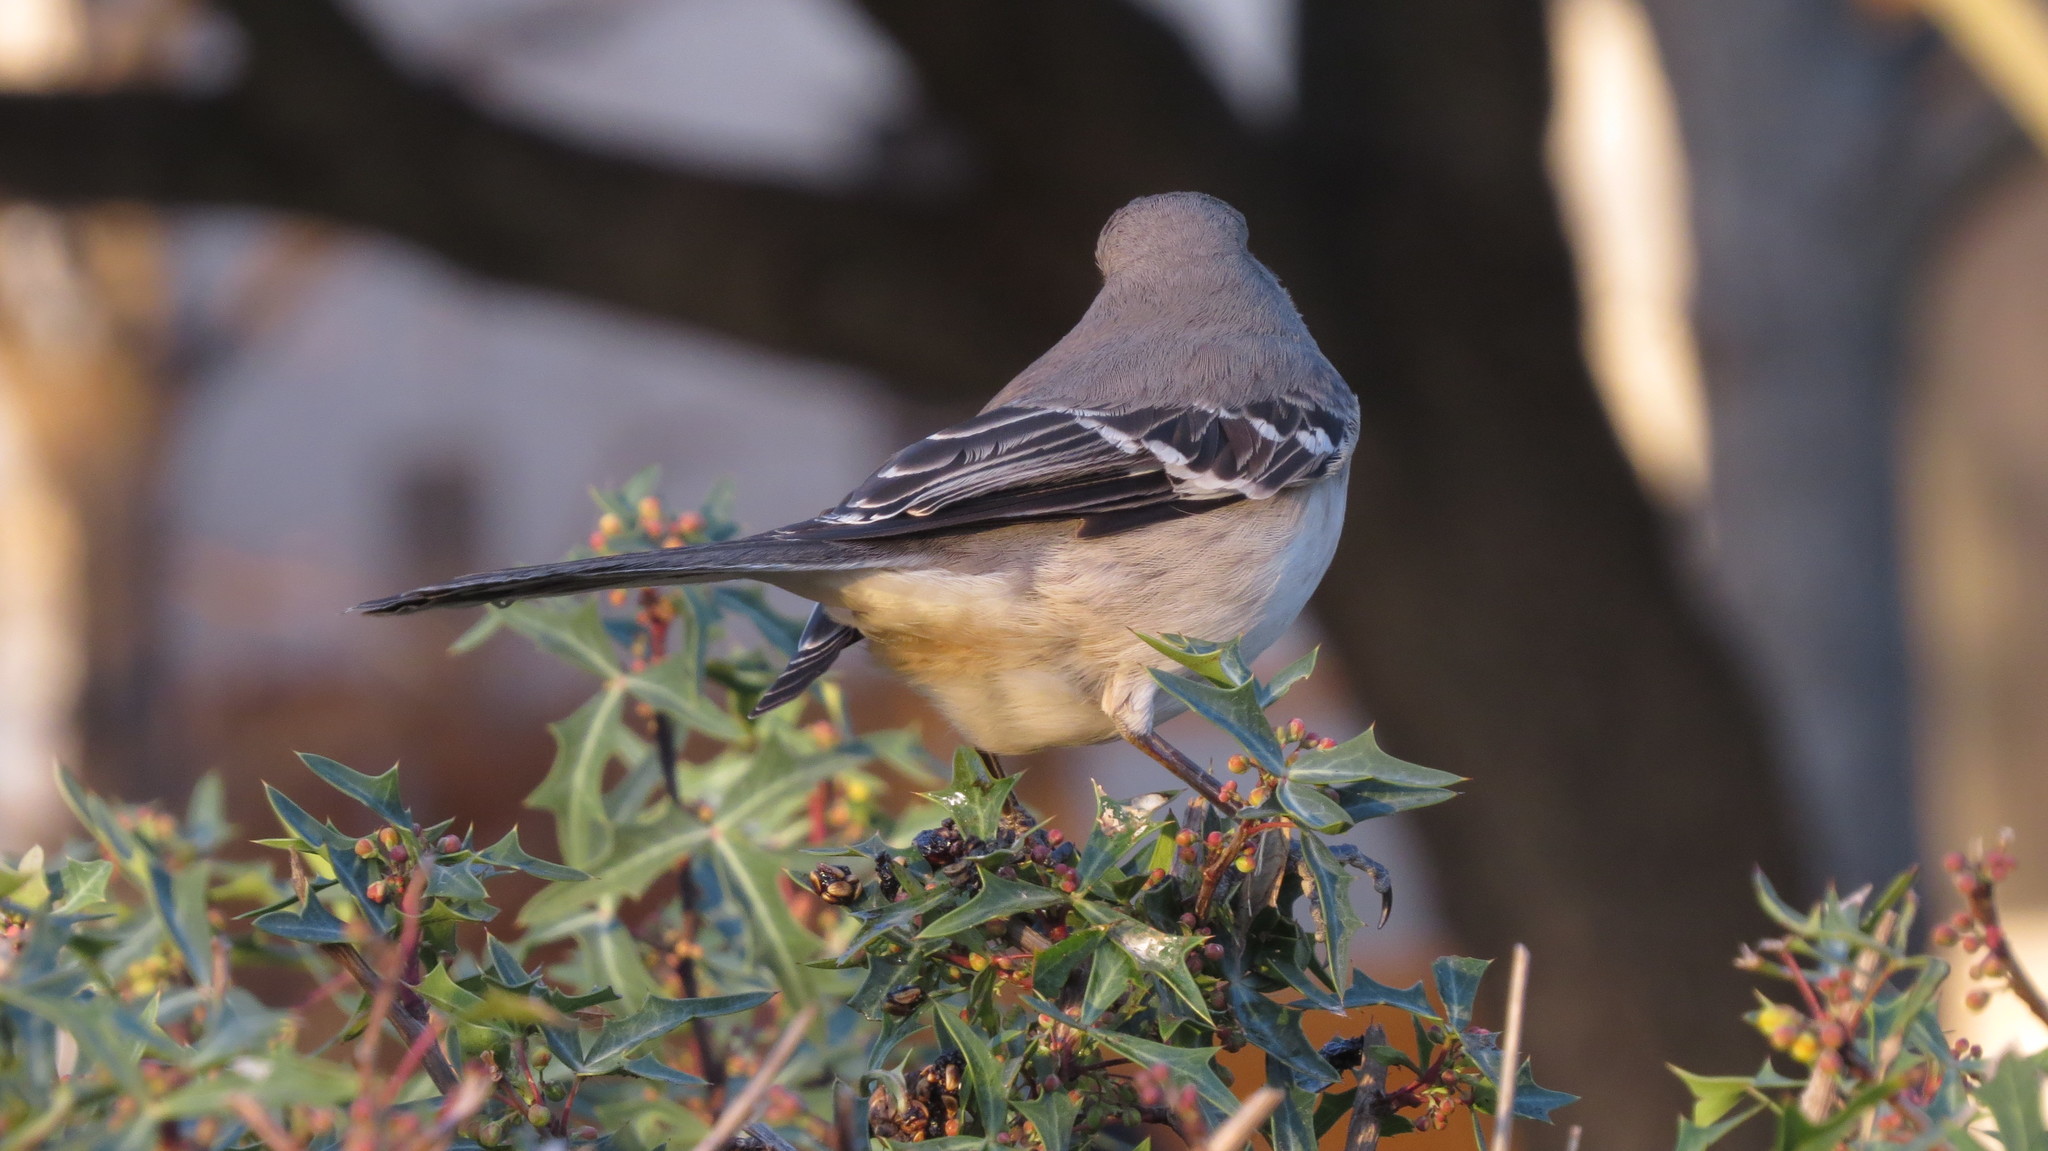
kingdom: Animalia
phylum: Chordata
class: Aves
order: Passeriformes
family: Mimidae
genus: Mimus
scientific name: Mimus polyglottos
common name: Northern mockingbird
